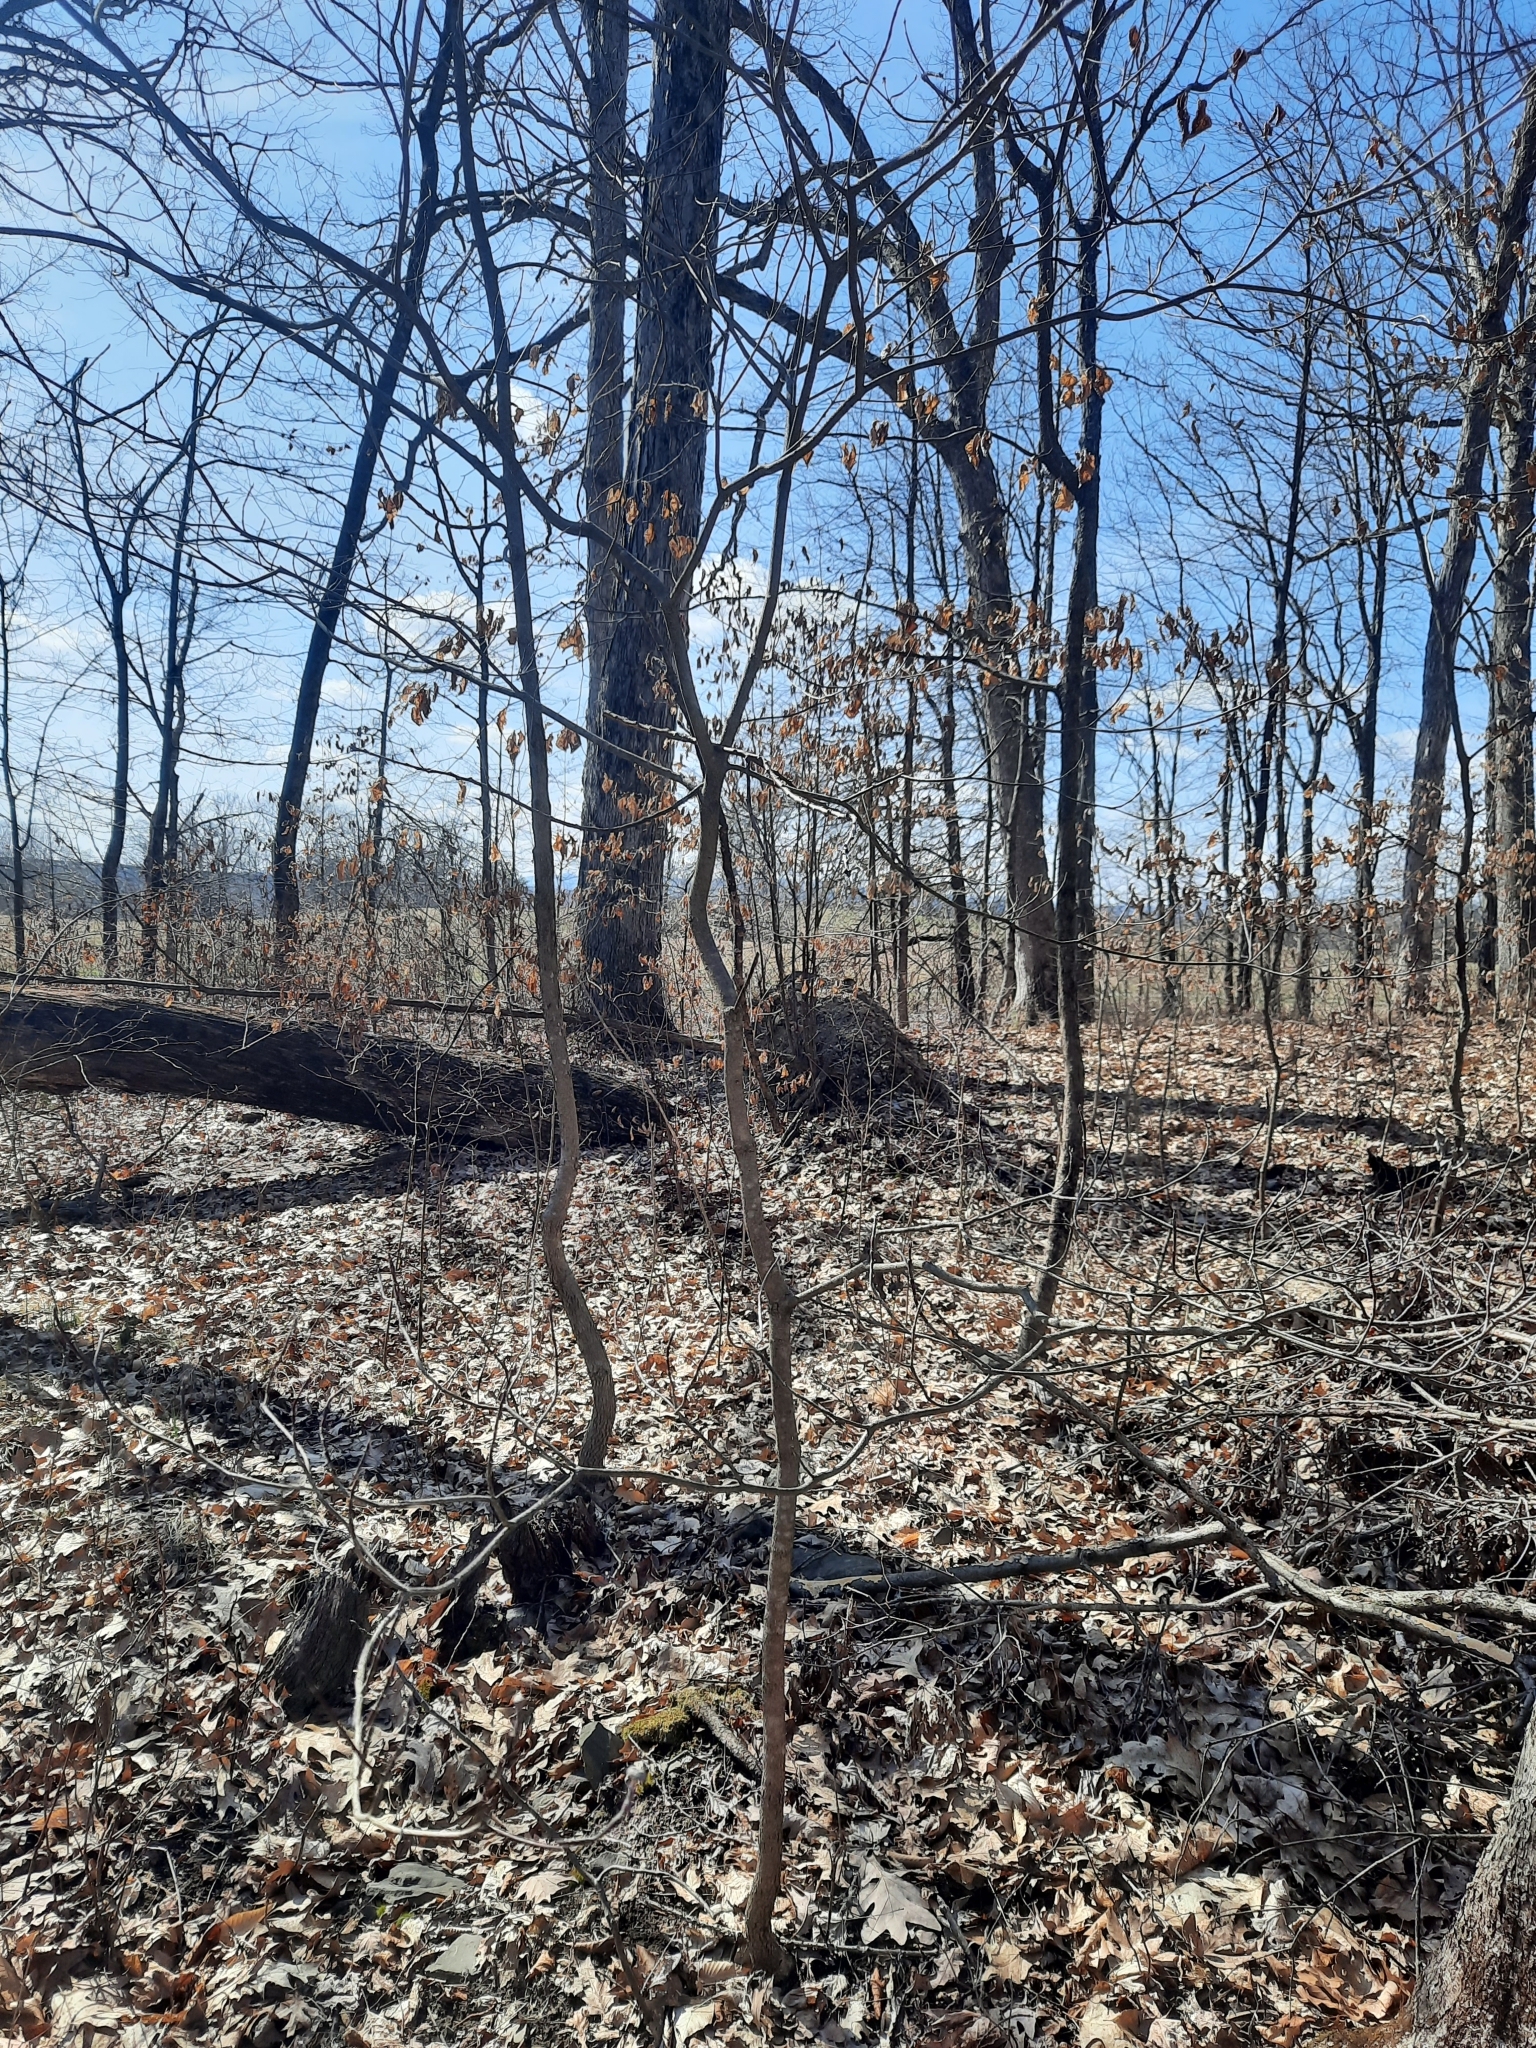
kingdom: Plantae
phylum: Tracheophyta
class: Magnoliopsida
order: Cornales
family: Cornaceae
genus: Cornus
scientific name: Cornus florida
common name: Flowering dogwood
